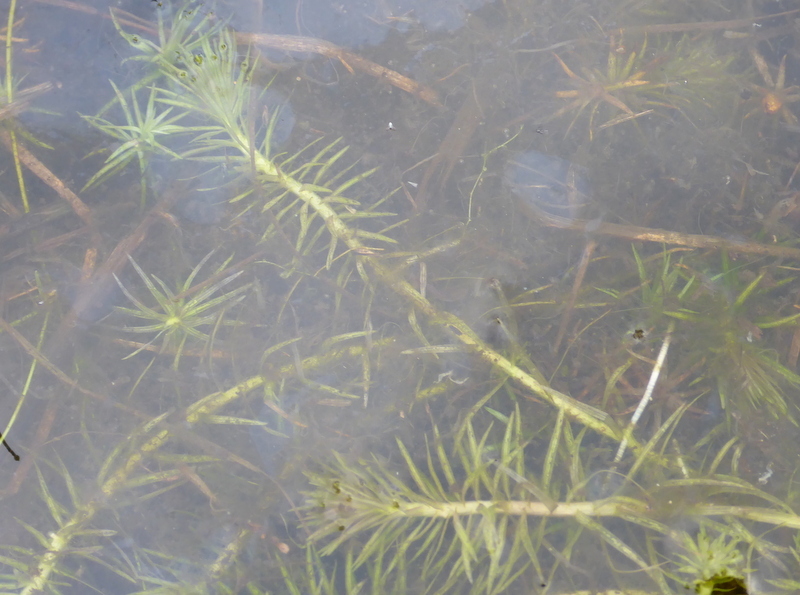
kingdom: Plantae
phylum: Tracheophyta
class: Liliopsida
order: Poales
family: Mayacaceae
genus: Mayaca
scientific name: Mayaca fluviatilis
